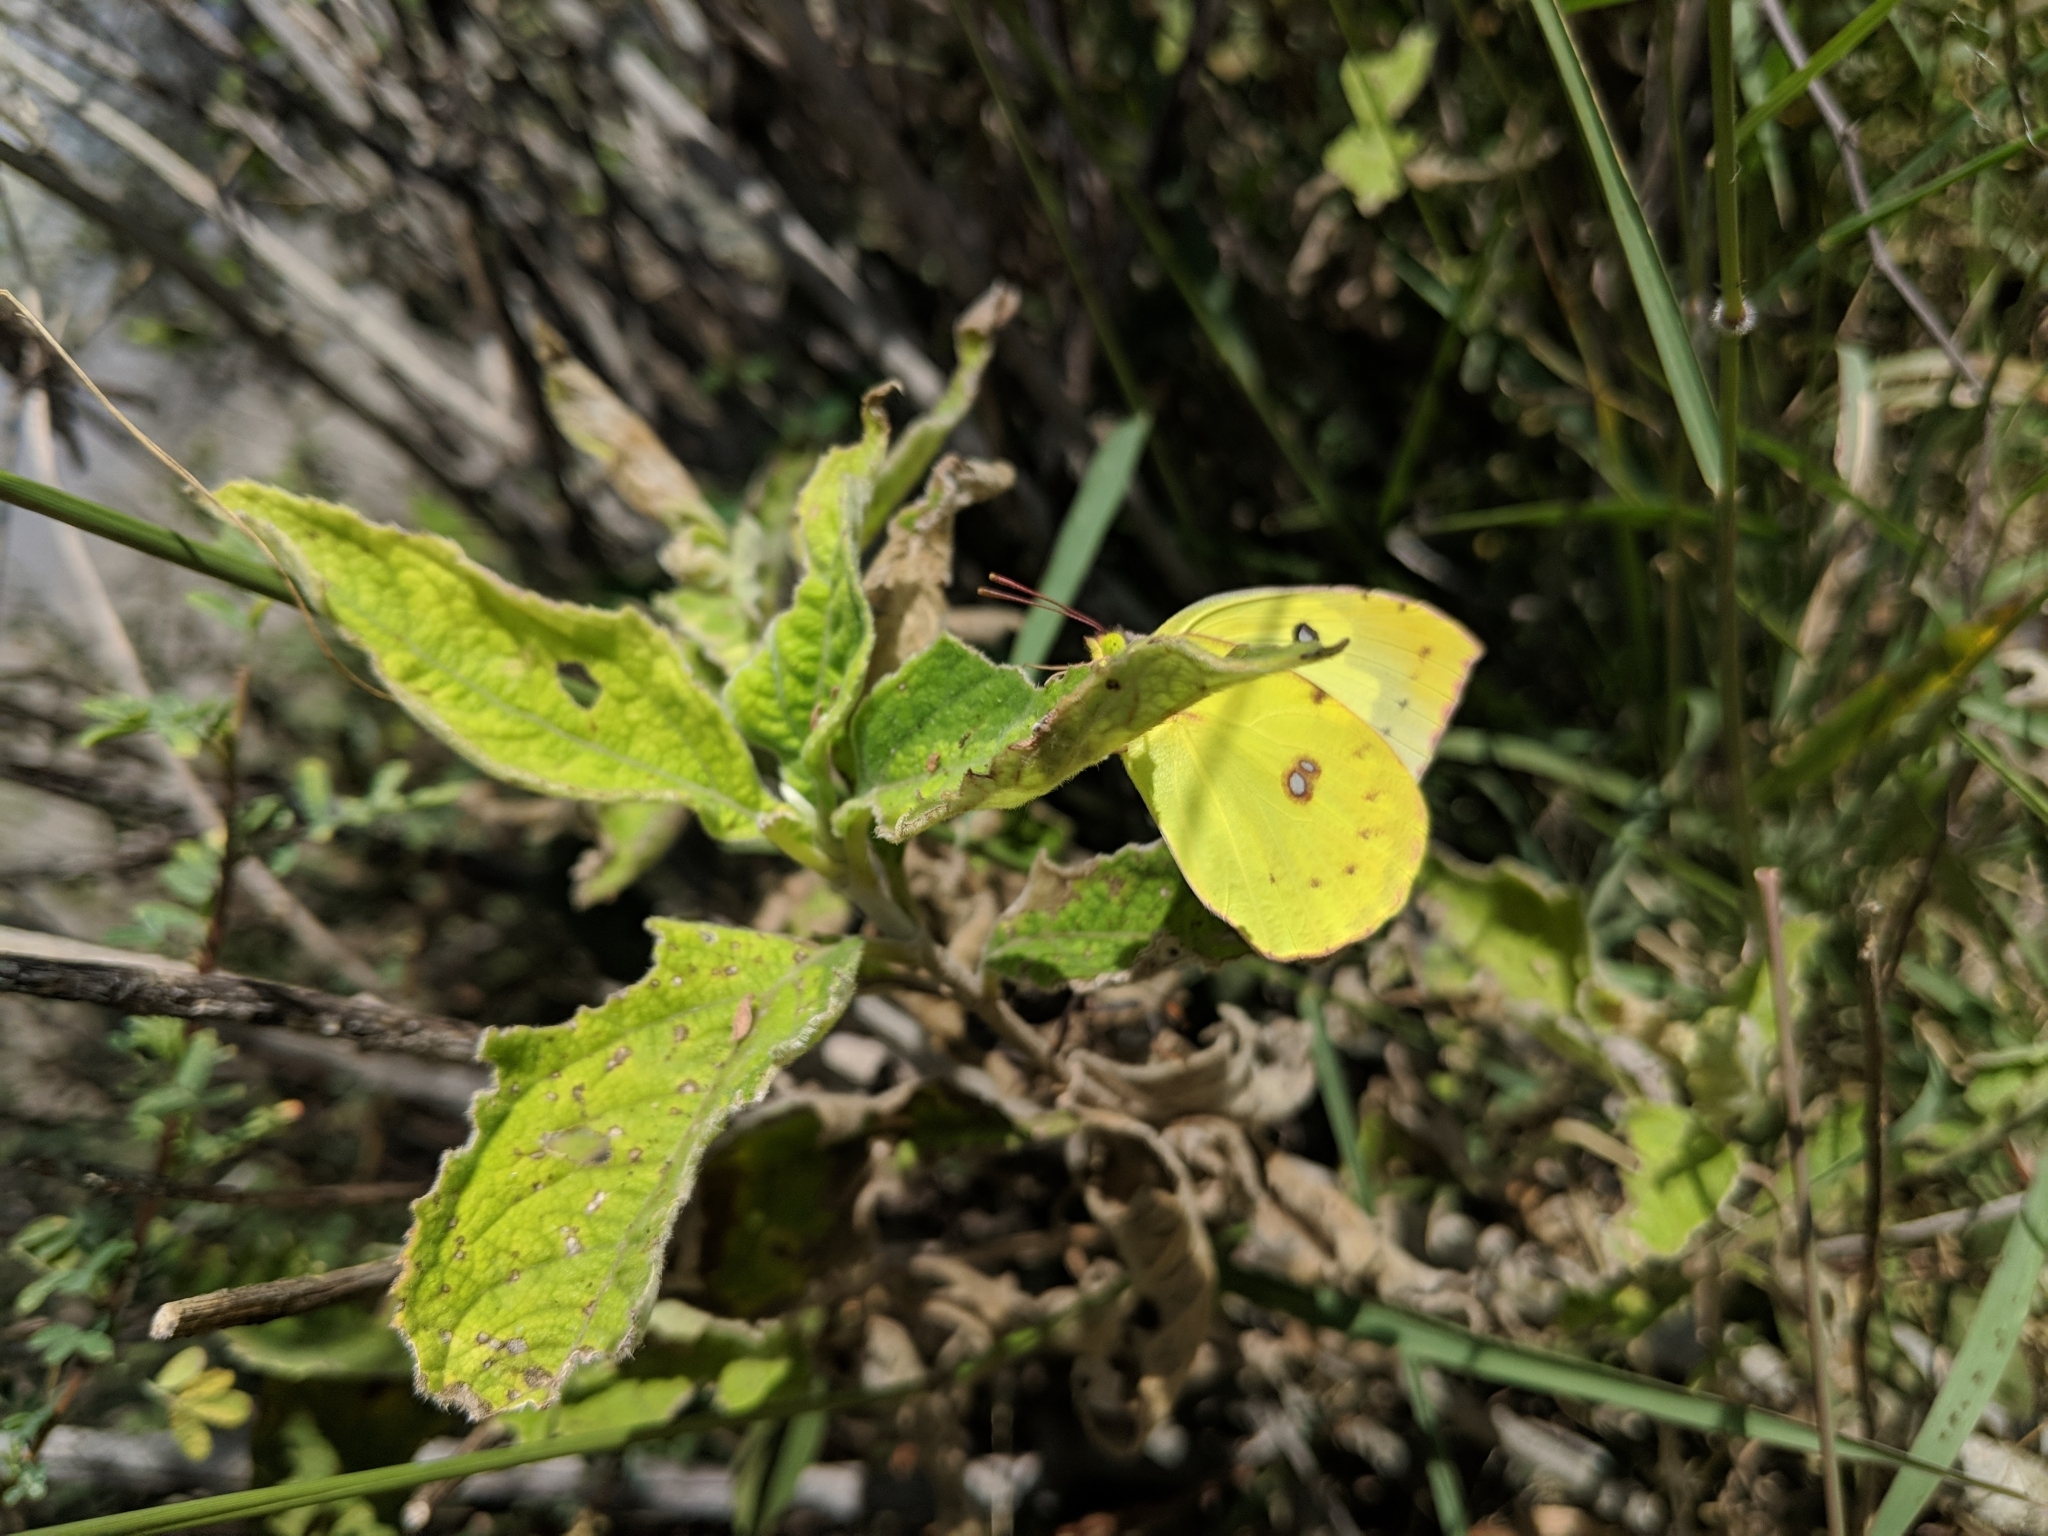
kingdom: Animalia
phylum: Arthropoda
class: Insecta
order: Lepidoptera
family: Pieridae
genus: Zerene
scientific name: Zerene cesonia
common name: Southern dogface
